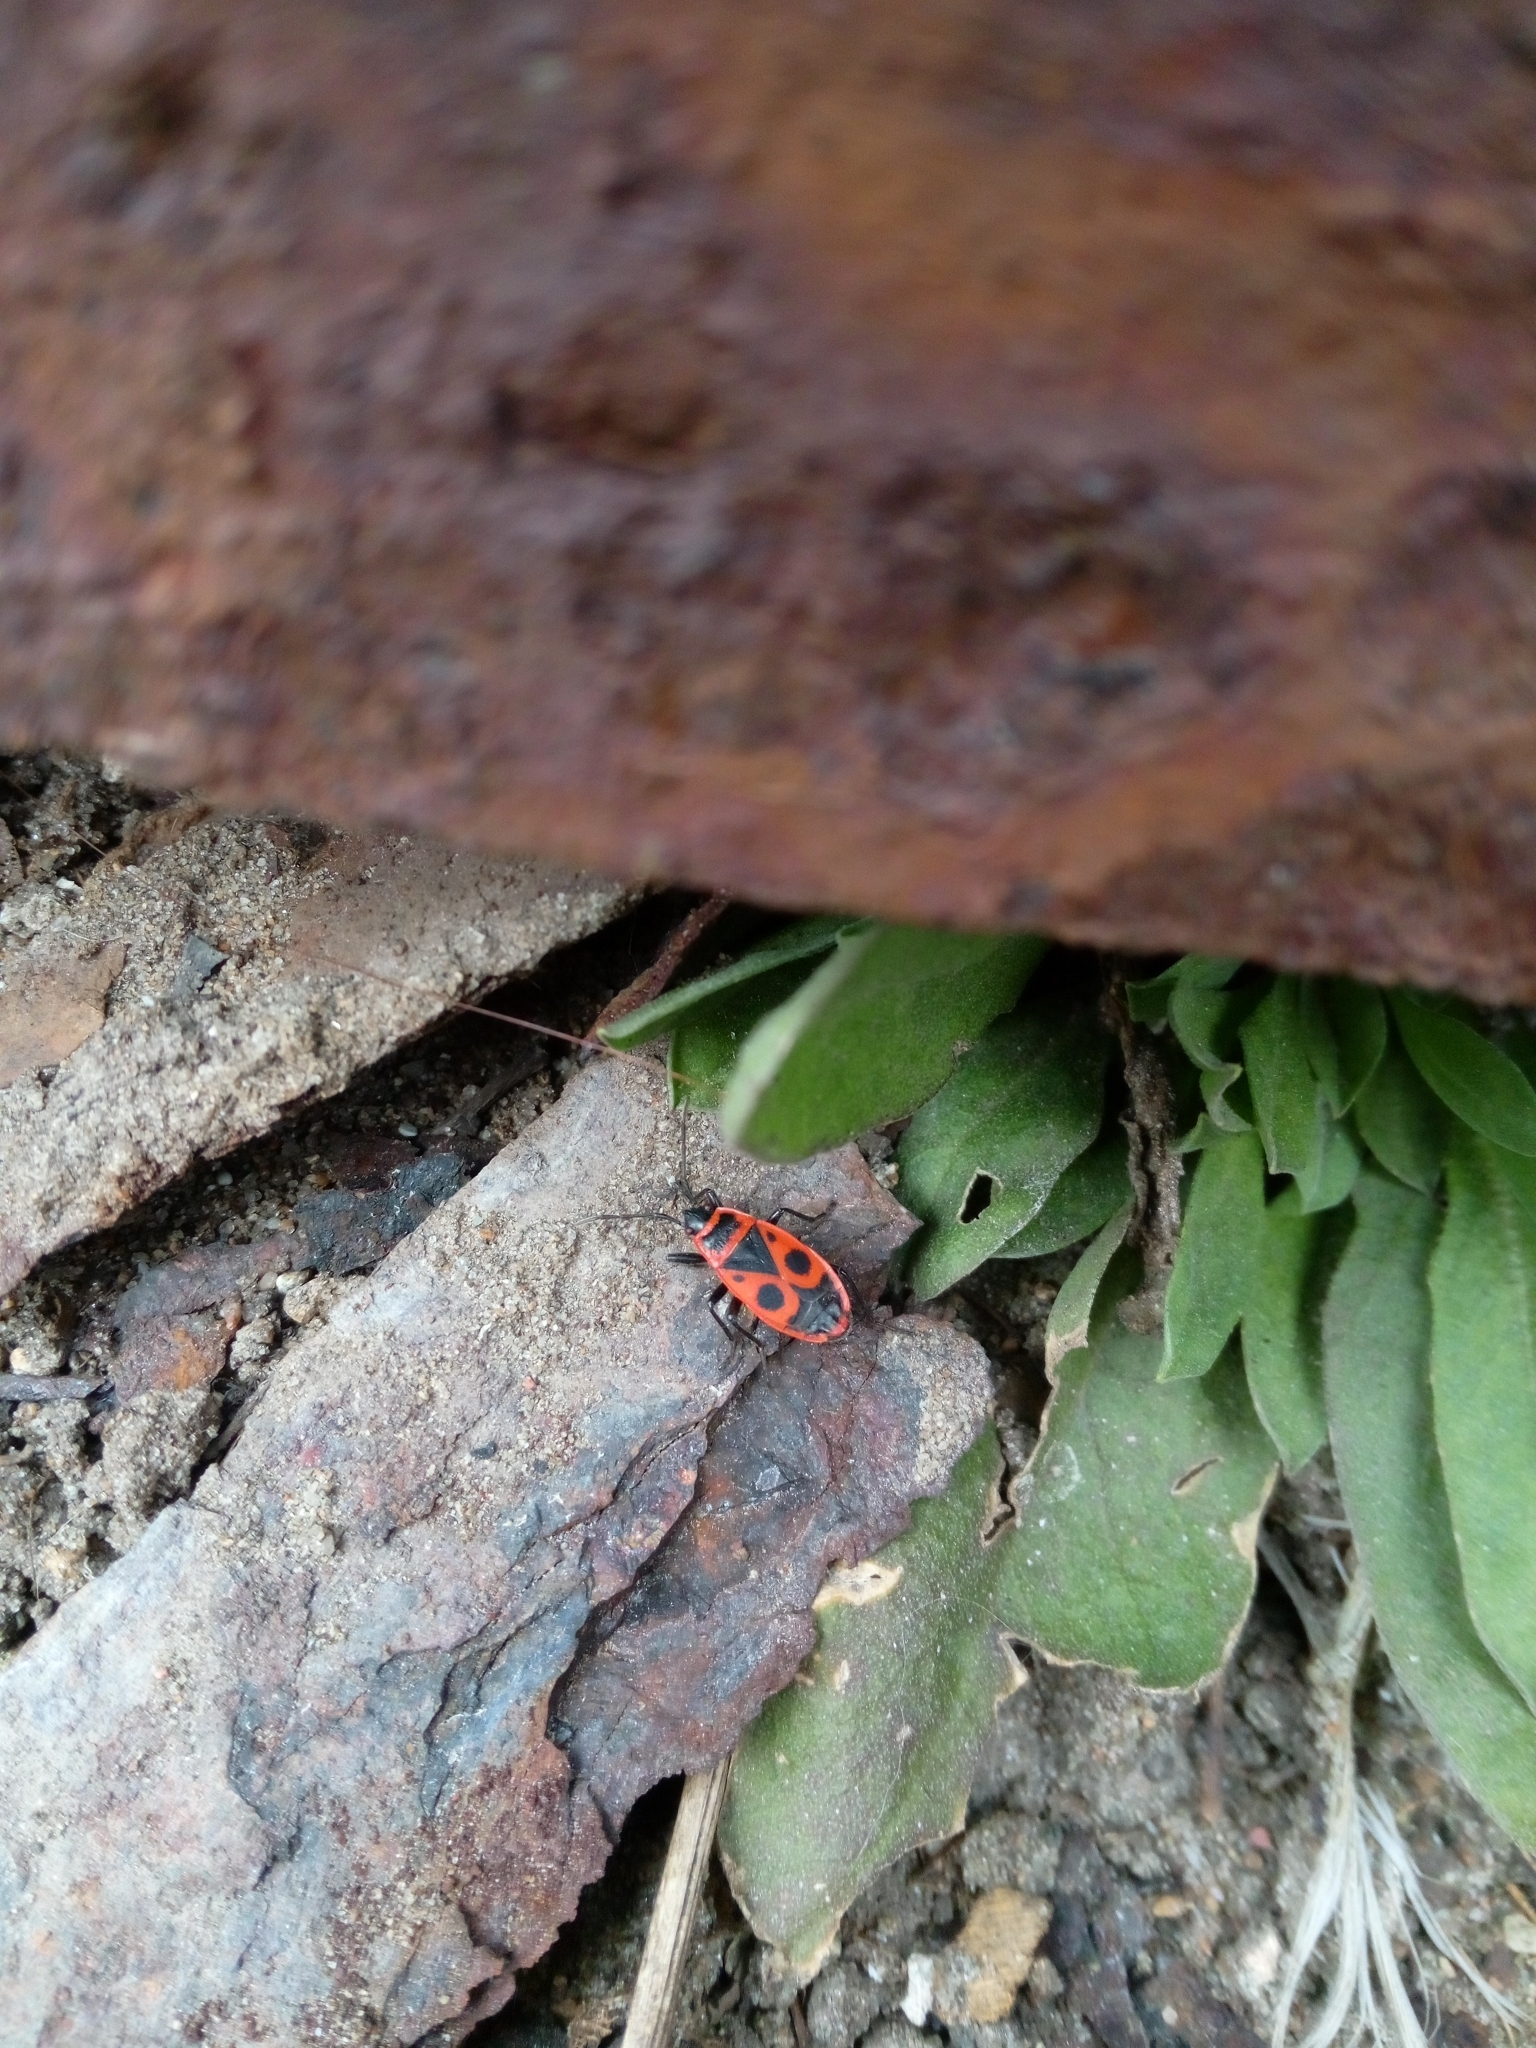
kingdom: Animalia
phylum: Arthropoda
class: Insecta
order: Hemiptera
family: Pyrrhocoridae
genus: Pyrrhocoris
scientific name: Pyrrhocoris apterus
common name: Firebug
